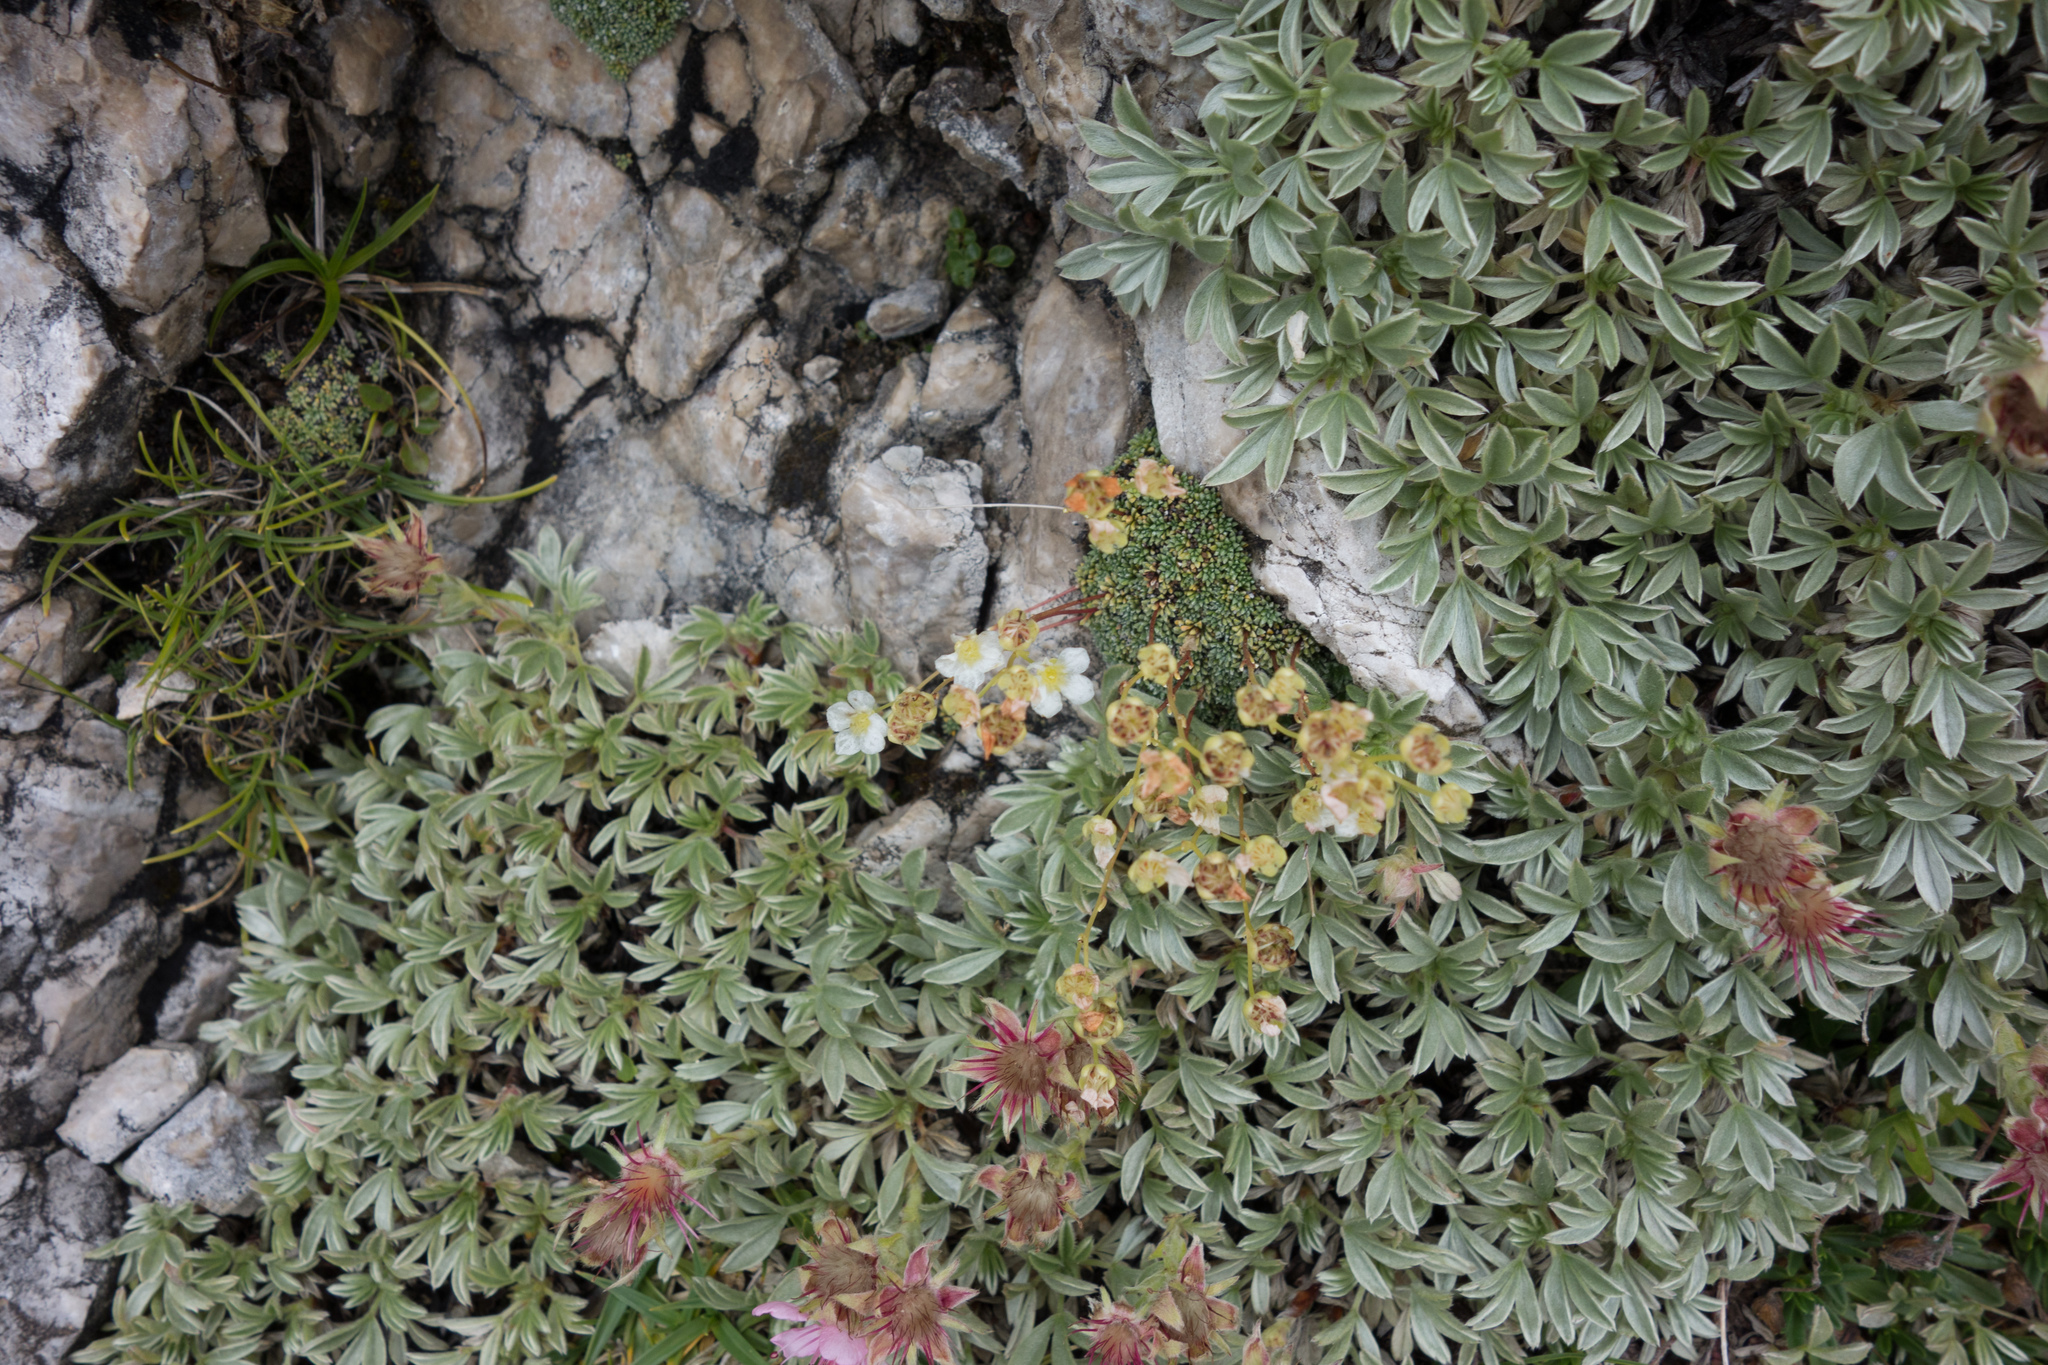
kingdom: Plantae
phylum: Tracheophyta
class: Magnoliopsida
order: Saxifragales
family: Saxifragaceae
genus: Saxifraga
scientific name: Saxifraga squarrosa
